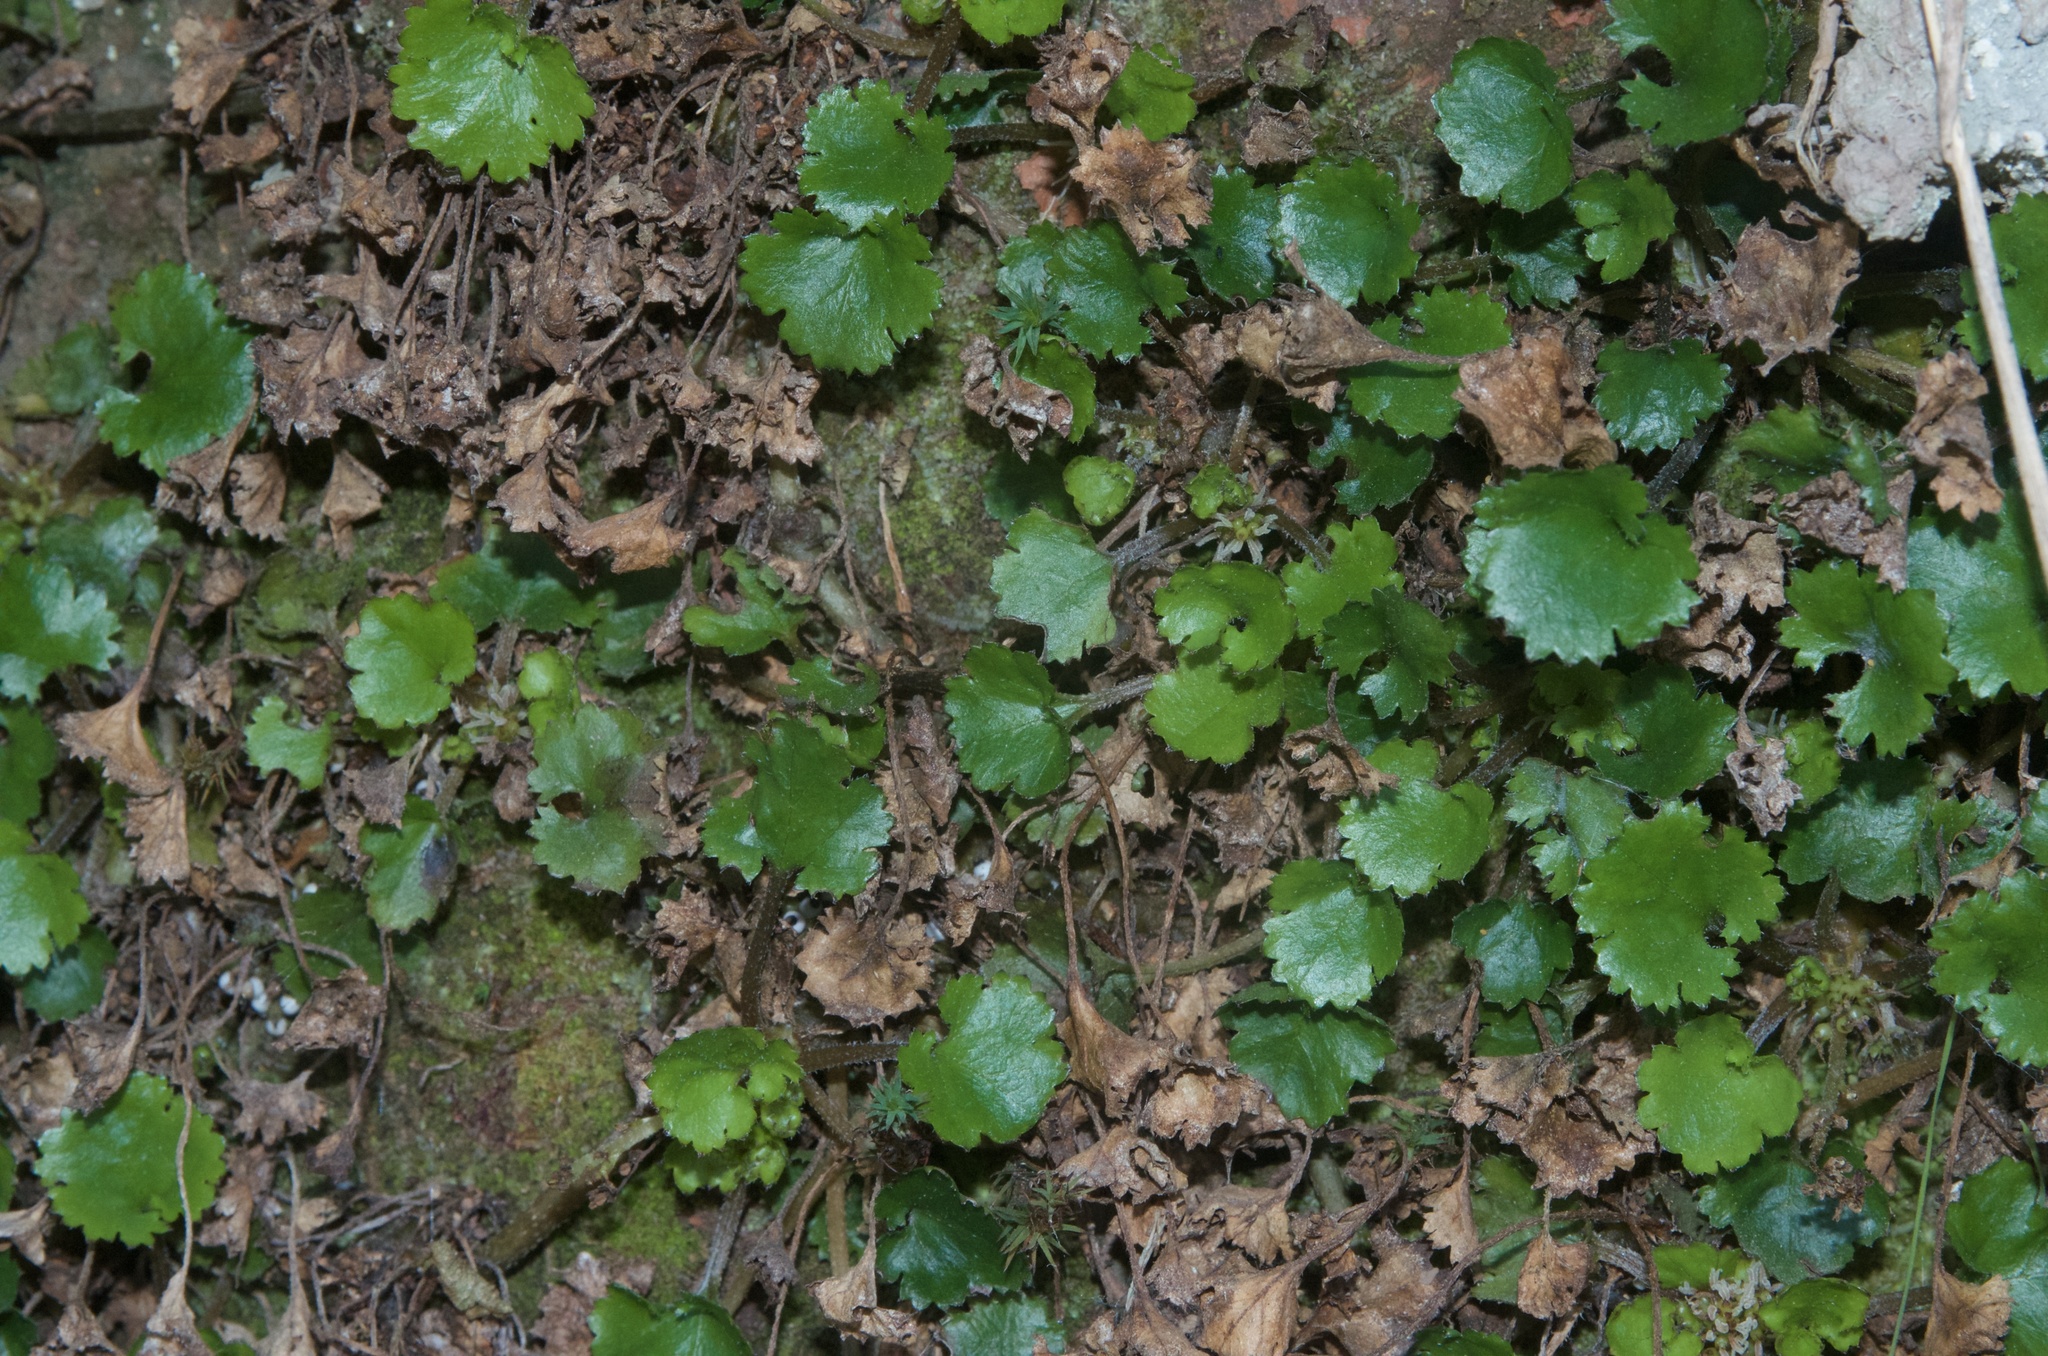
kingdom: Plantae
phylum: Tracheophyta
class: Magnoliopsida
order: Gunnerales
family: Gunneraceae
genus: Gunnera
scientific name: Gunnera monoica
